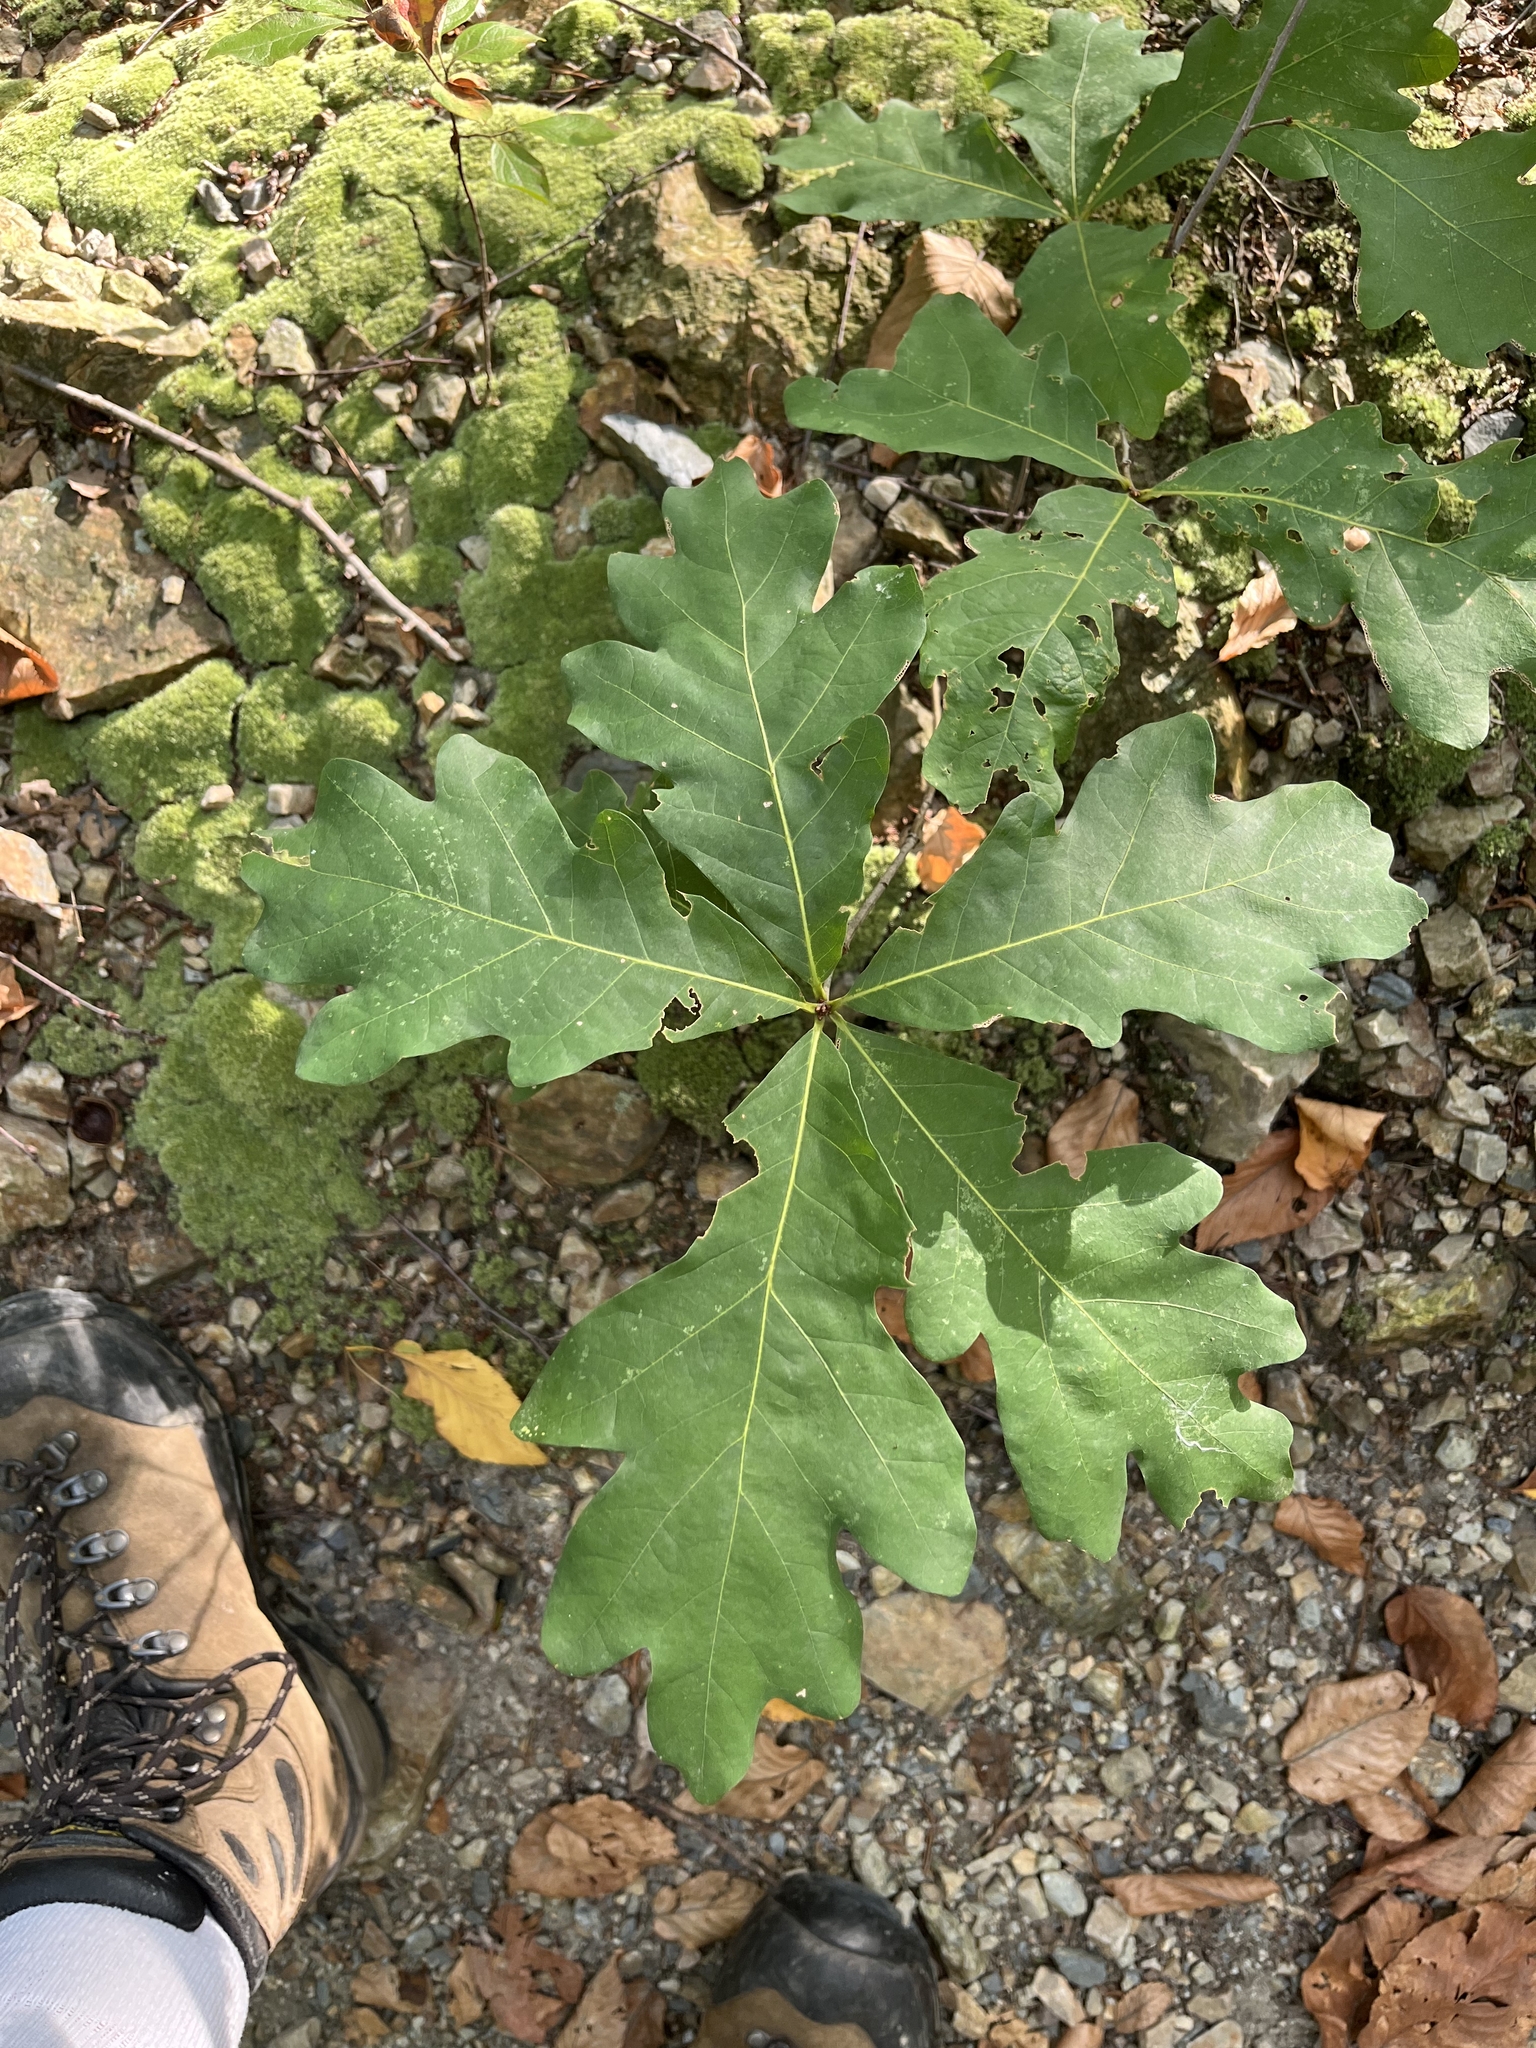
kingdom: Plantae
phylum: Tracheophyta
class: Magnoliopsida
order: Fagales
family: Fagaceae
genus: Quercus
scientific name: Quercus alba
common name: White oak
